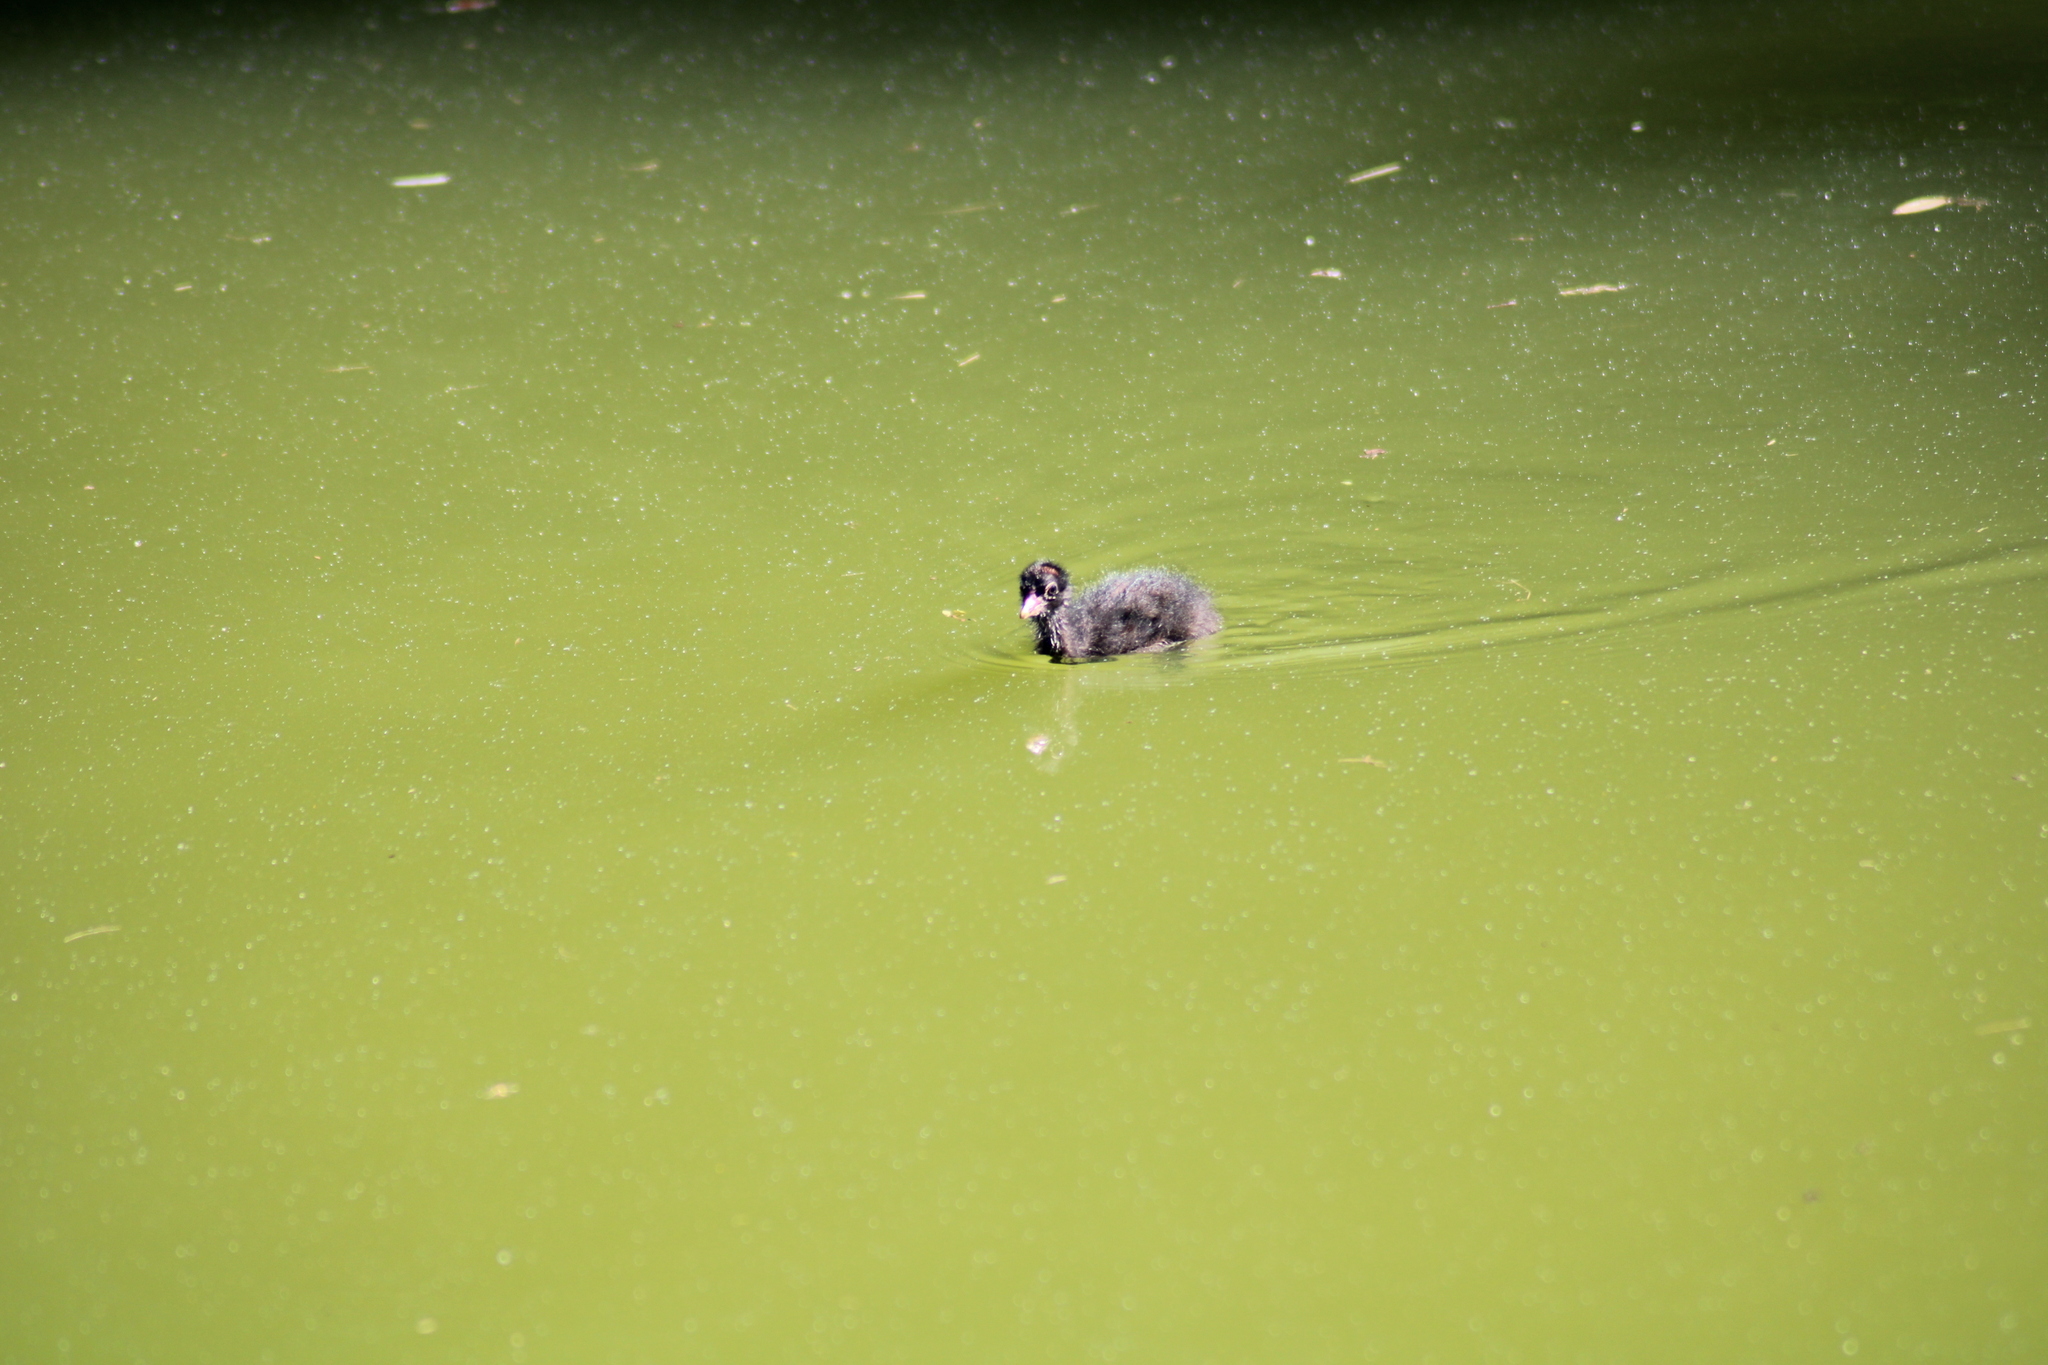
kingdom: Animalia
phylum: Chordata
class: Aves
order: Gruiformes
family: Rallidae
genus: Gallinula
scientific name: Gallinula chloropus
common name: Common moorhen
